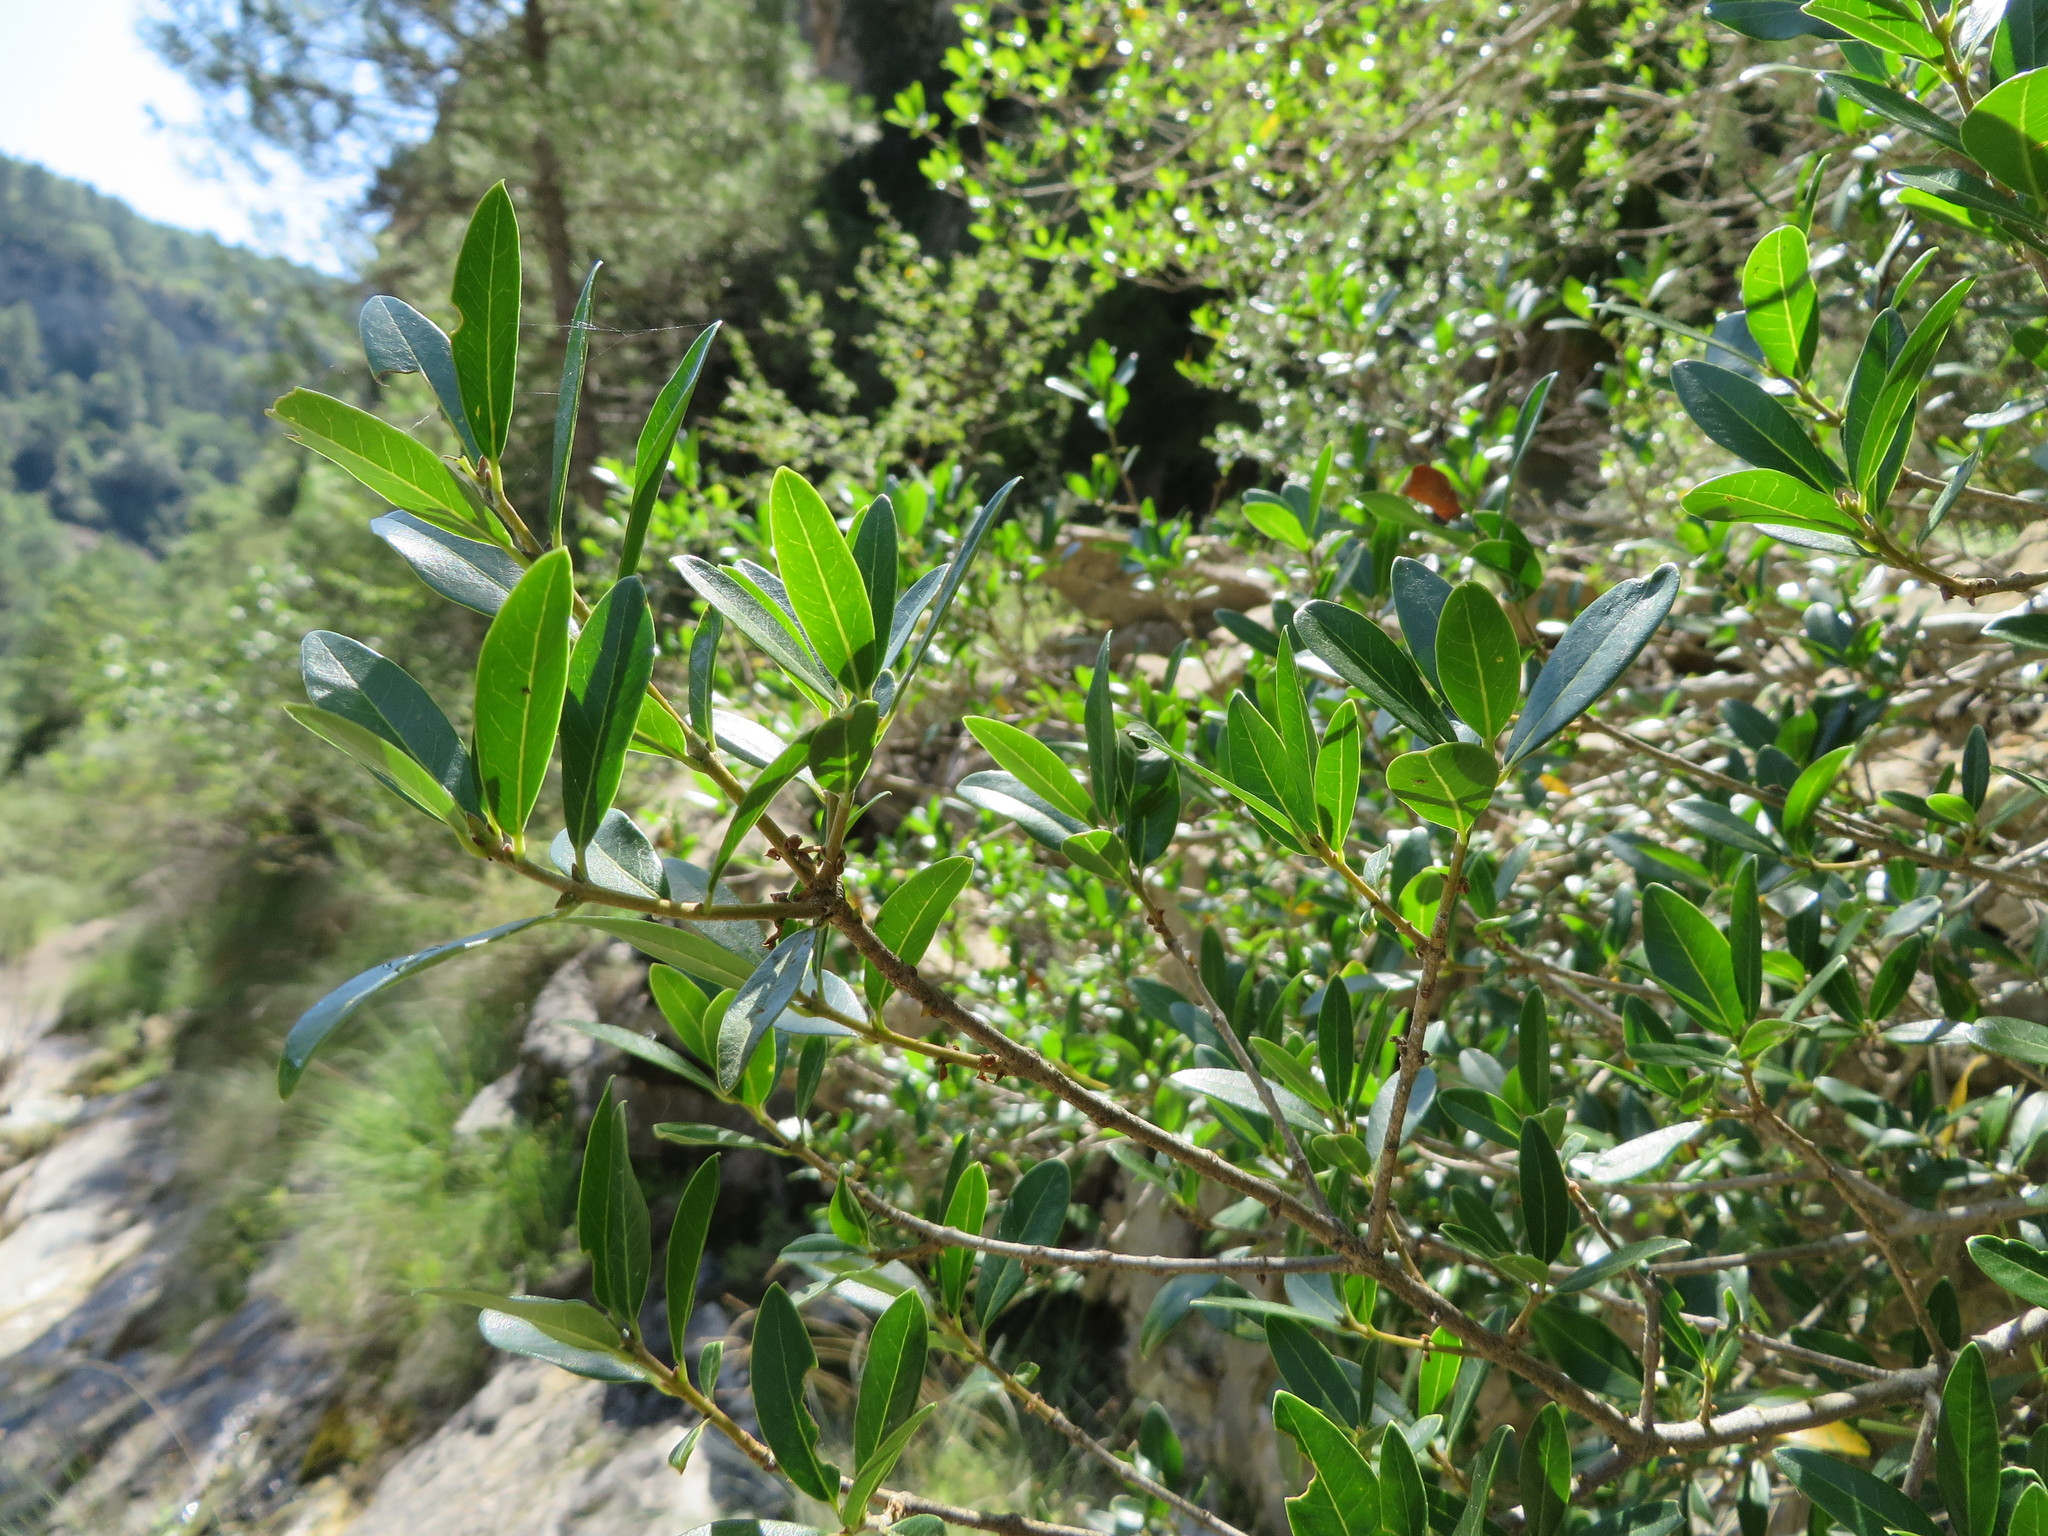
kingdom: Plantae
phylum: Tracheophyta
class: Magnoliopsida
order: Lamiales
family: Oleaceae
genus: Phillyrea
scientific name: Phillyrea latifolia
